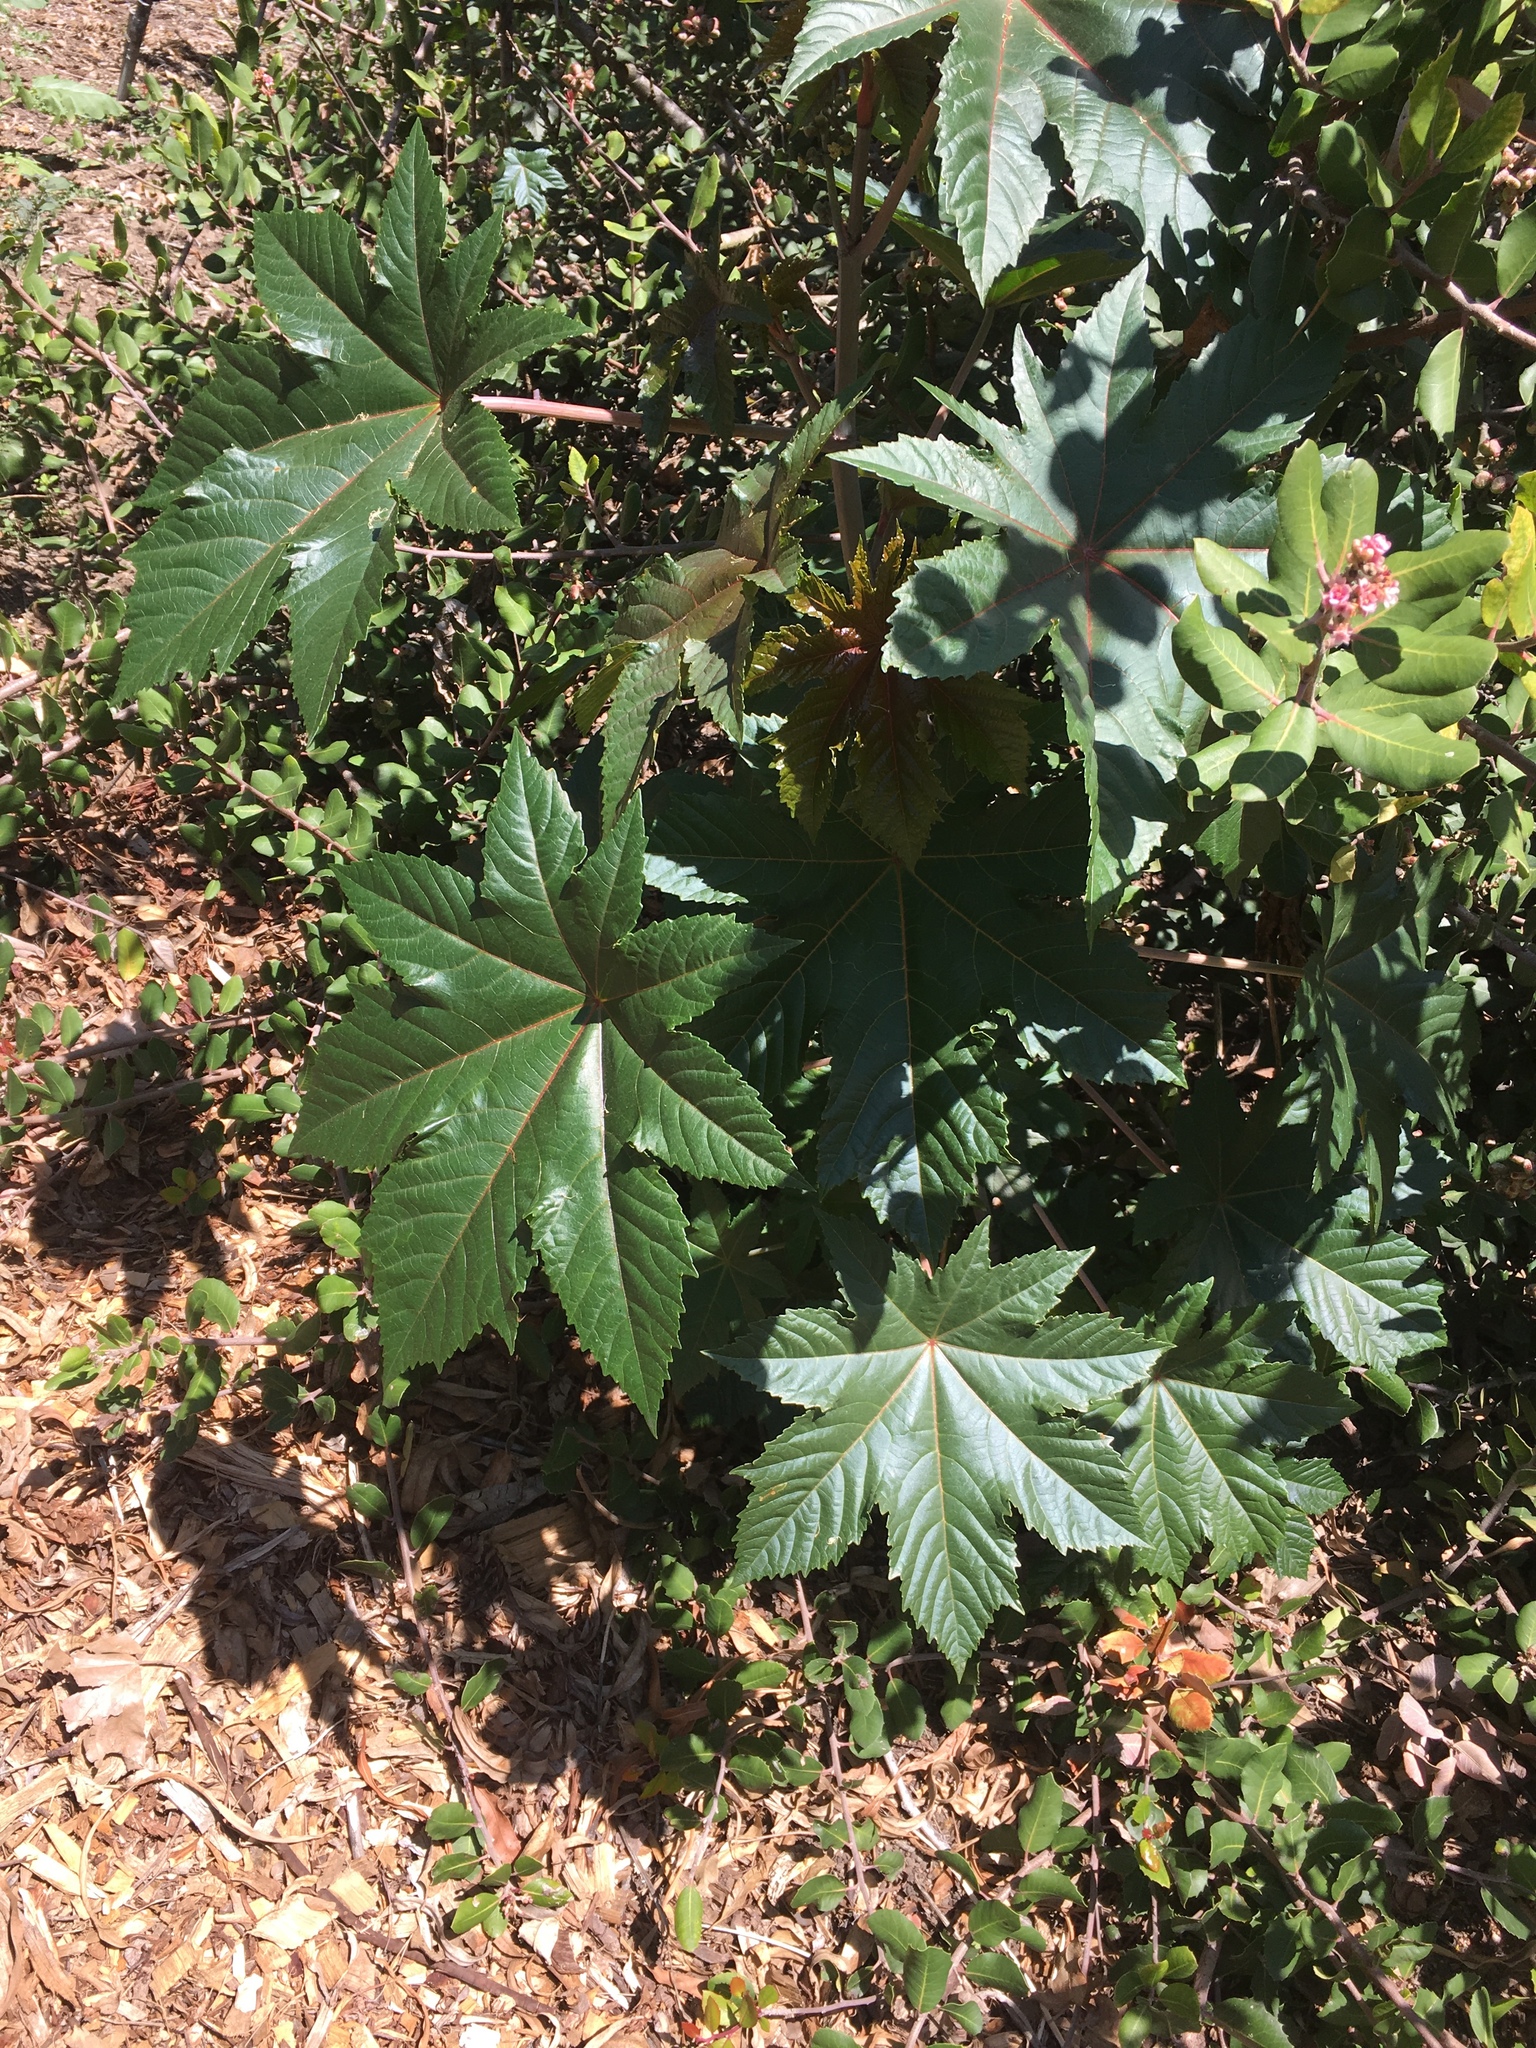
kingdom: Plantae
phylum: Tracheophyta
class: Magnoliopsida
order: Malpighiales
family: Euphorbiaceae
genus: Ricinus
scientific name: Ricinus communis
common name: Castor-oil-plant
